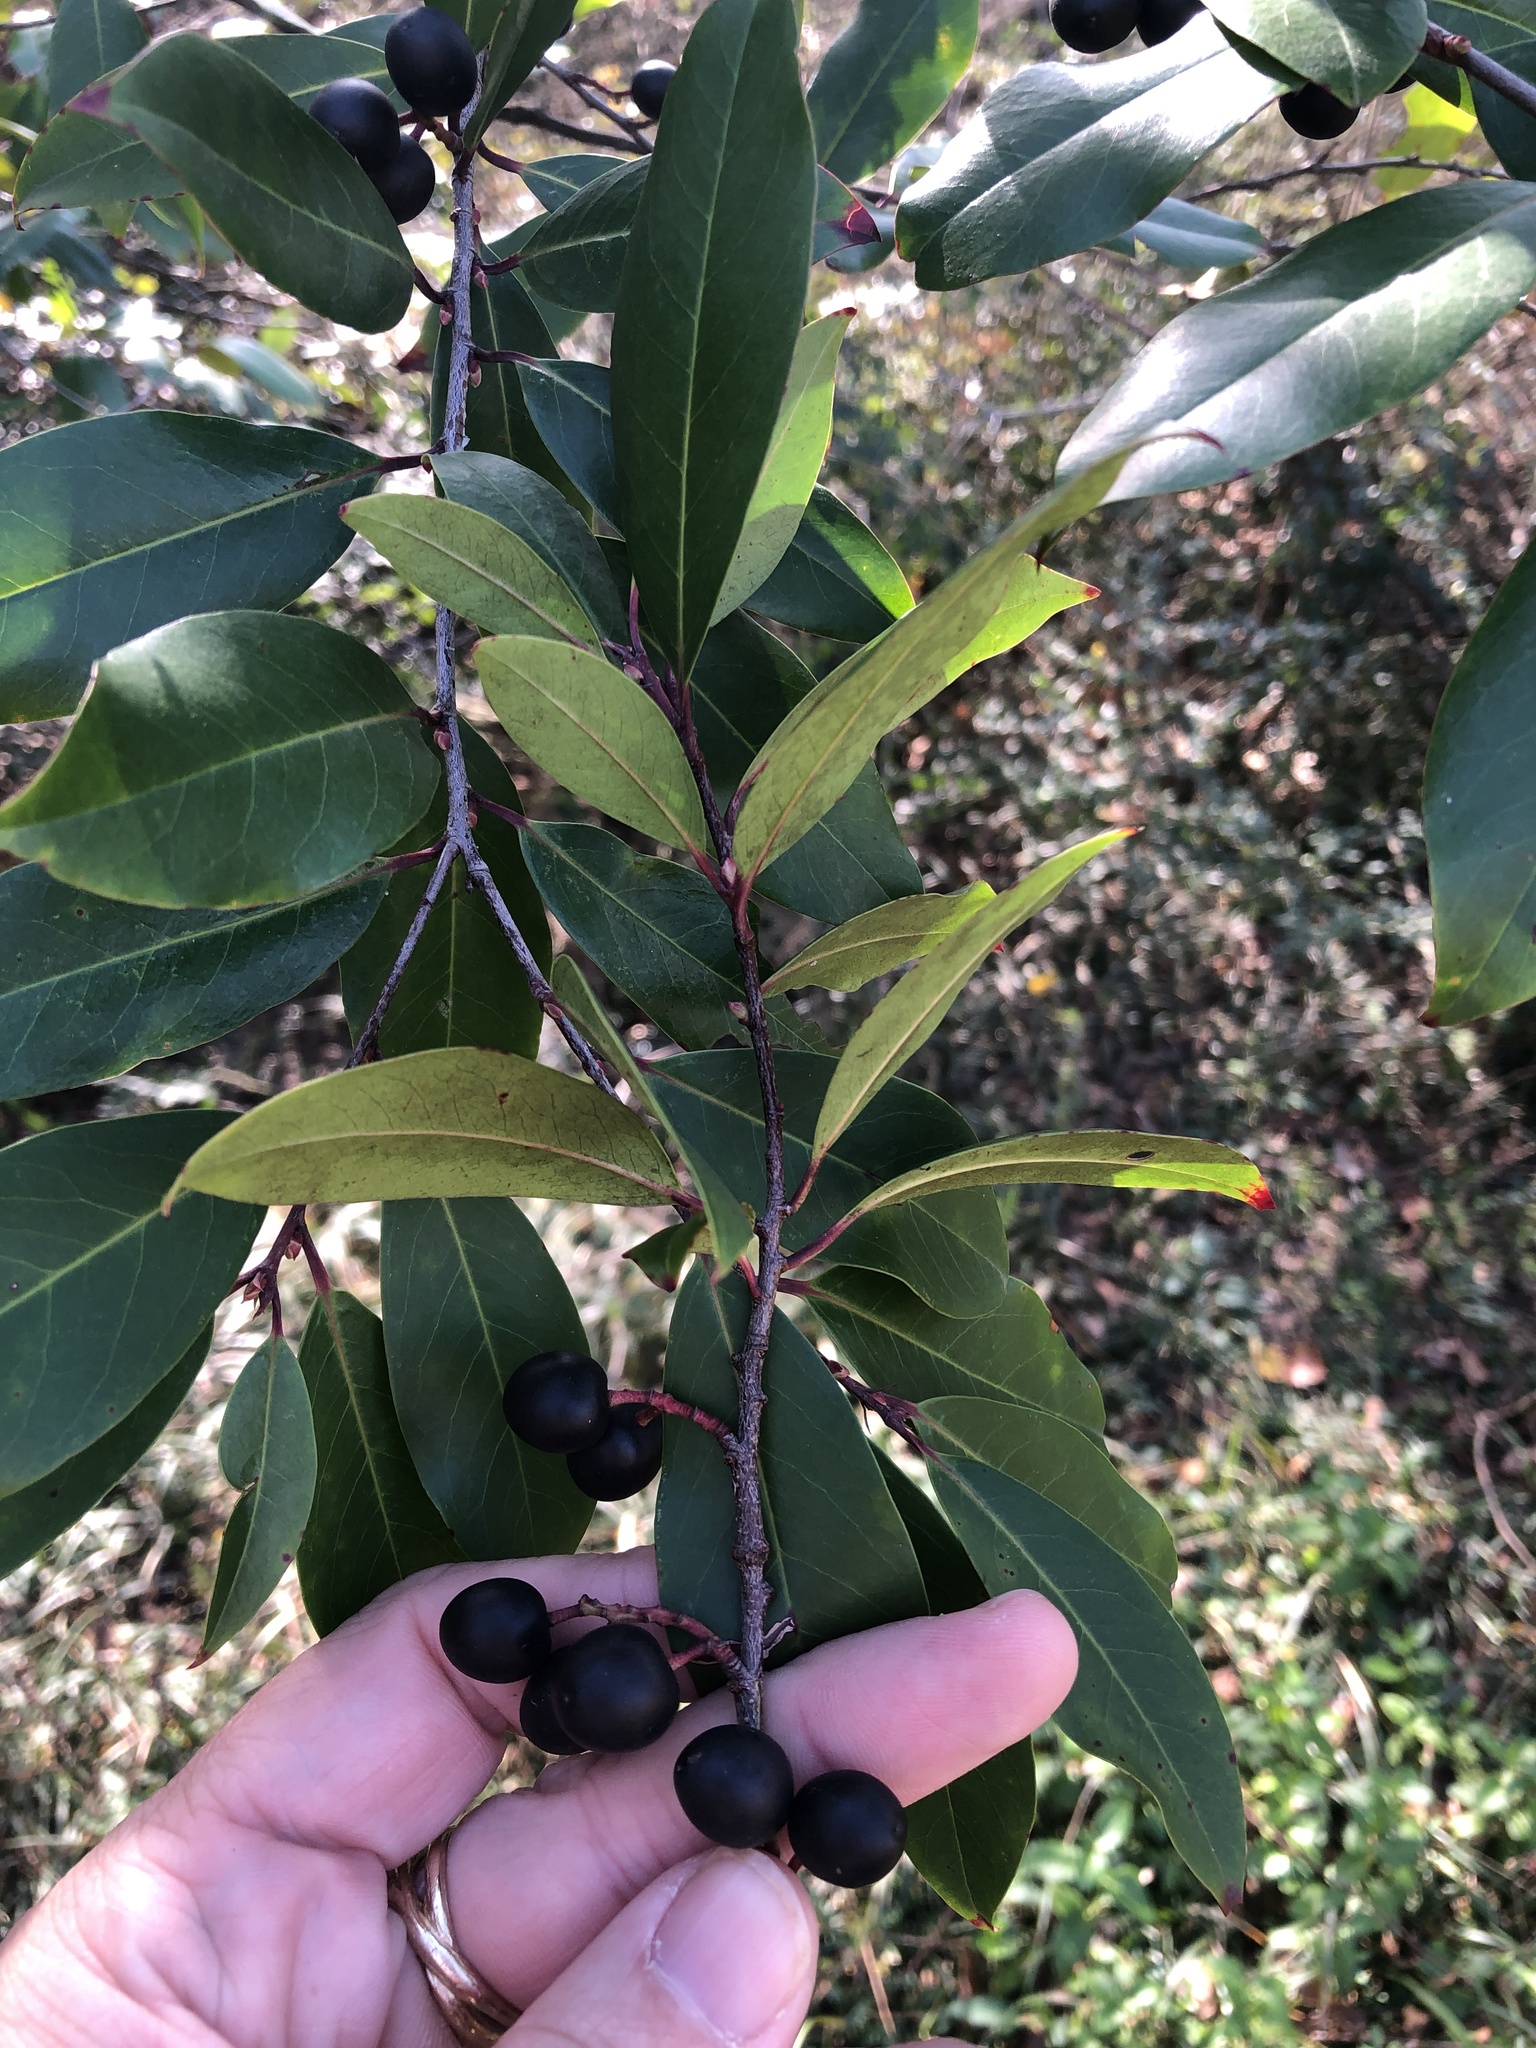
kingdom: Plantae
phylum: Tracheophyta
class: Magnoliopsida
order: Rosales
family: Rosaceae
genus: Prunus
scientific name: Prunus caroliniana
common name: Carolina laurel cherry
